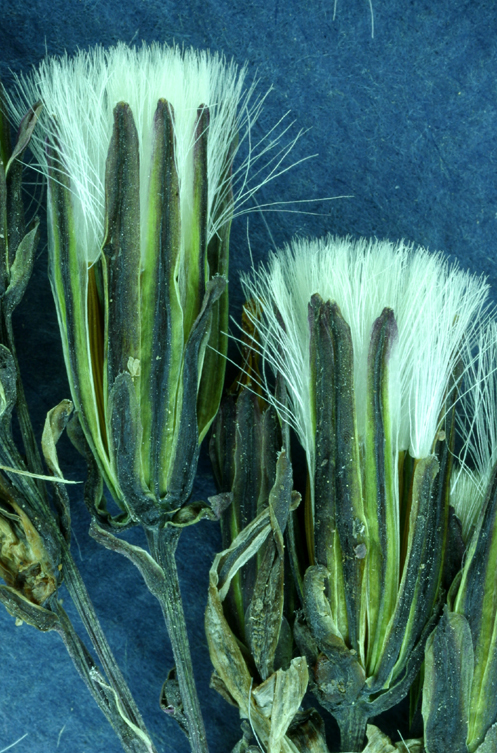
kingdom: Plantae
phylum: Tracheophyta
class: Magnoliopsida
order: Asterales
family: Asteraceae
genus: Askellia
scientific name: Askellia pygmaea
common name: Dwarf alpine hawksbeard
